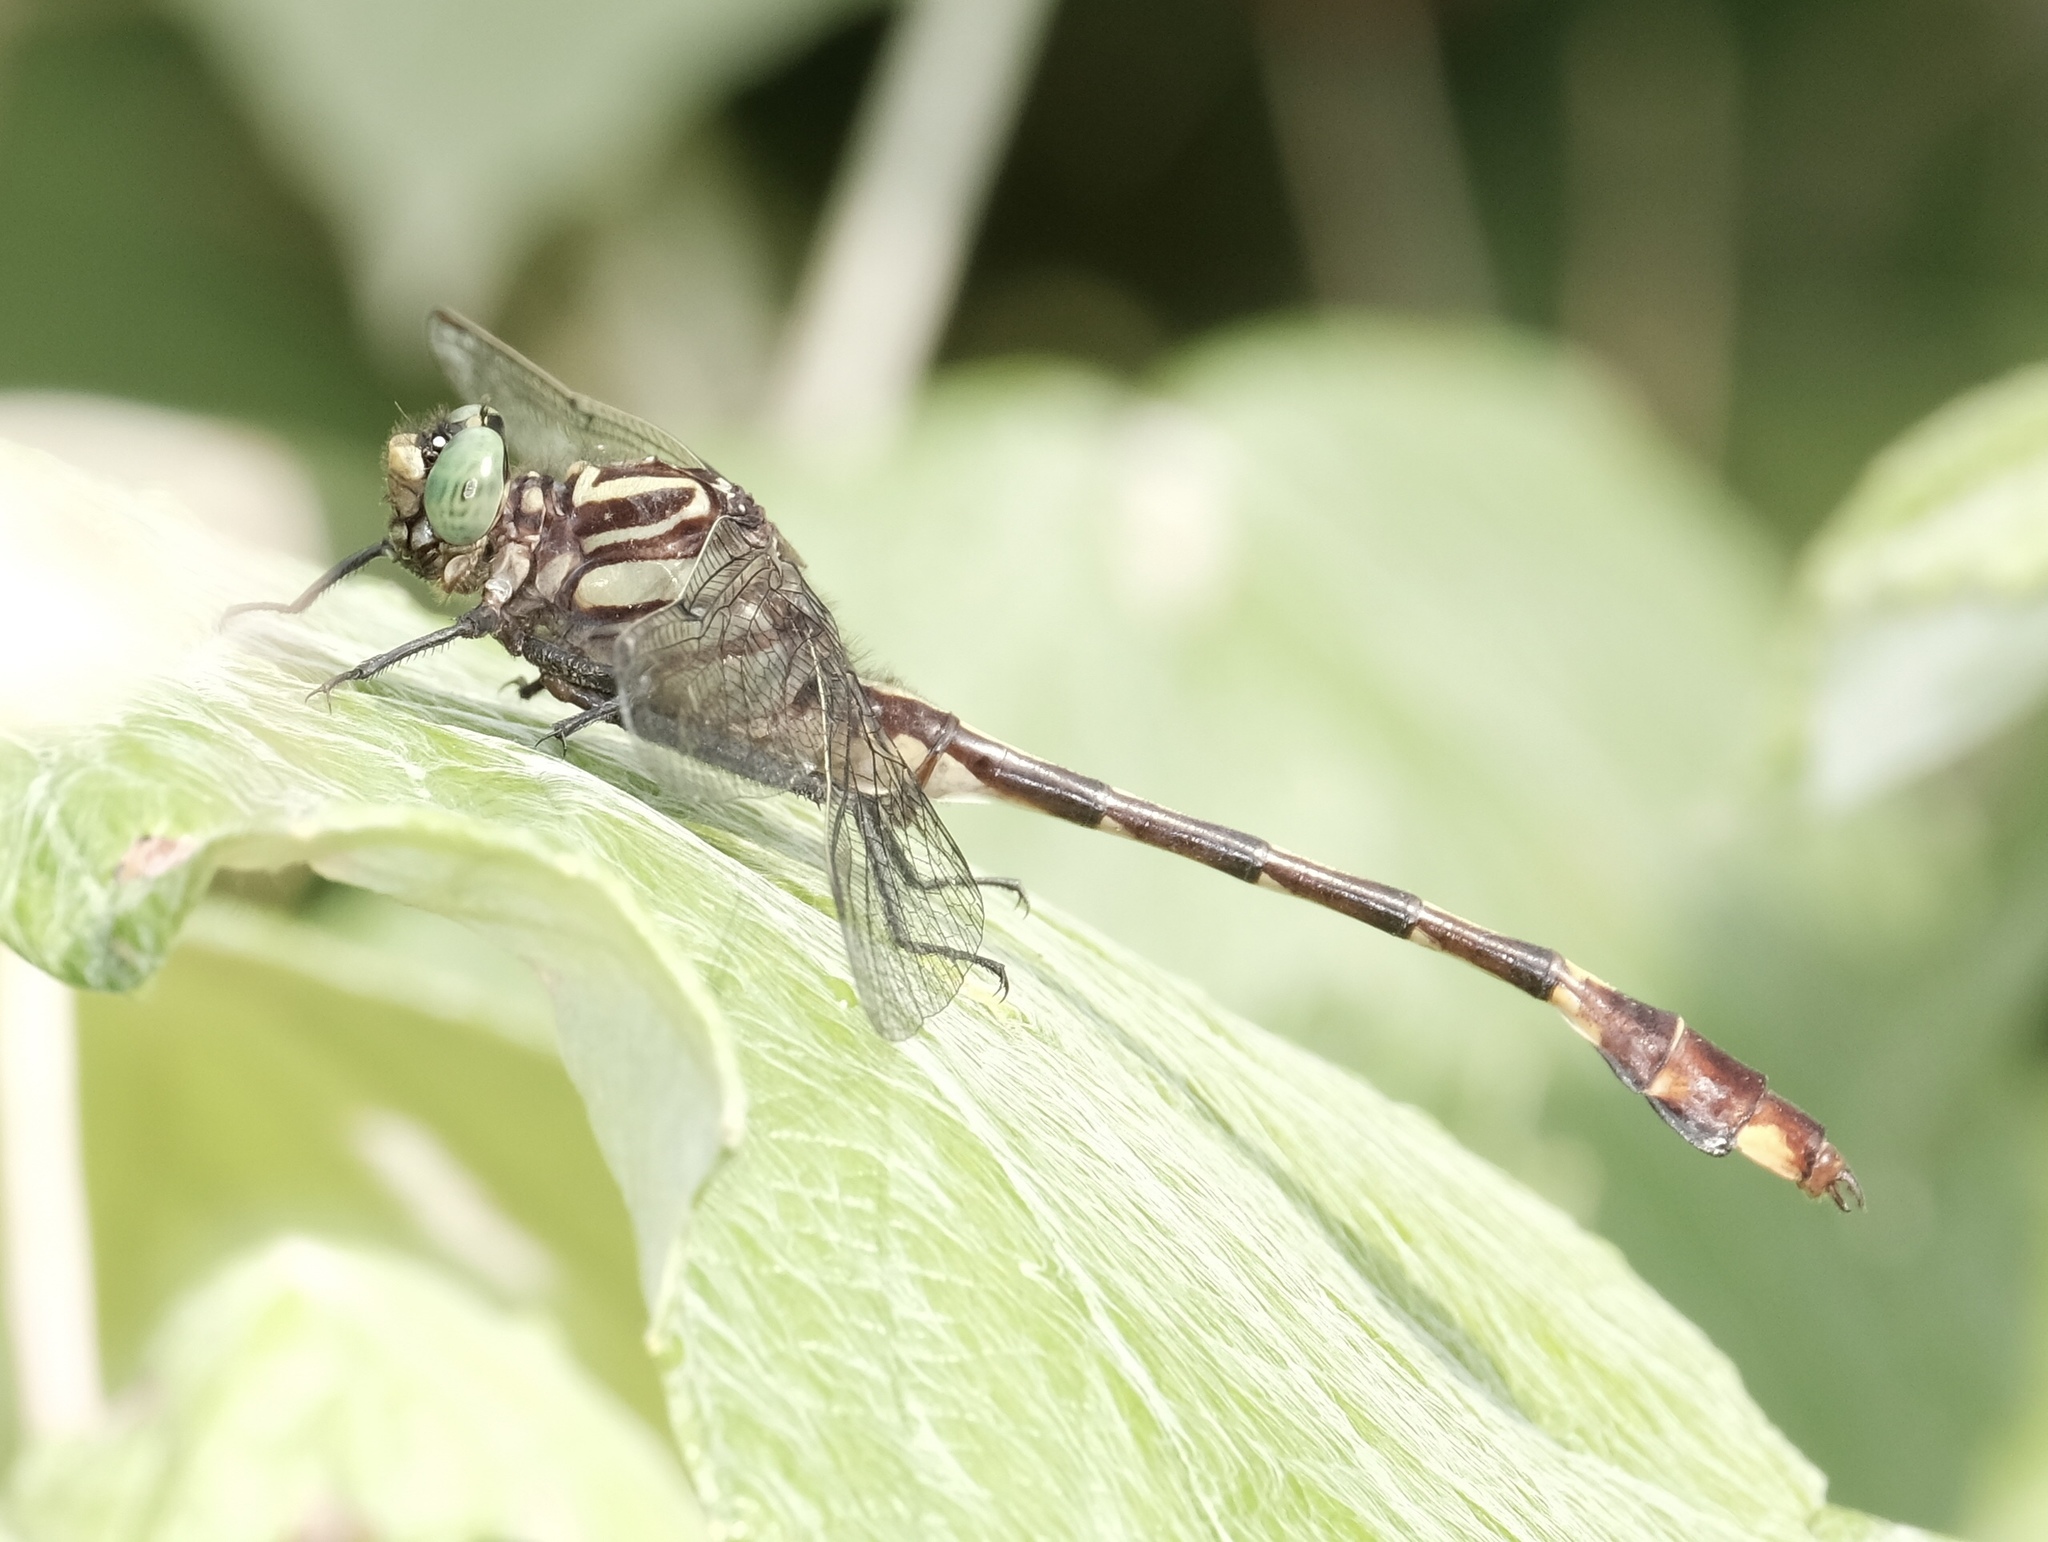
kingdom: Animalia
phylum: Arthropoda
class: Insecta
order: Odonata
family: Gomphidae
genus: Gomphurus
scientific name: Gomphurus vastus
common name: Cobra clubtail
